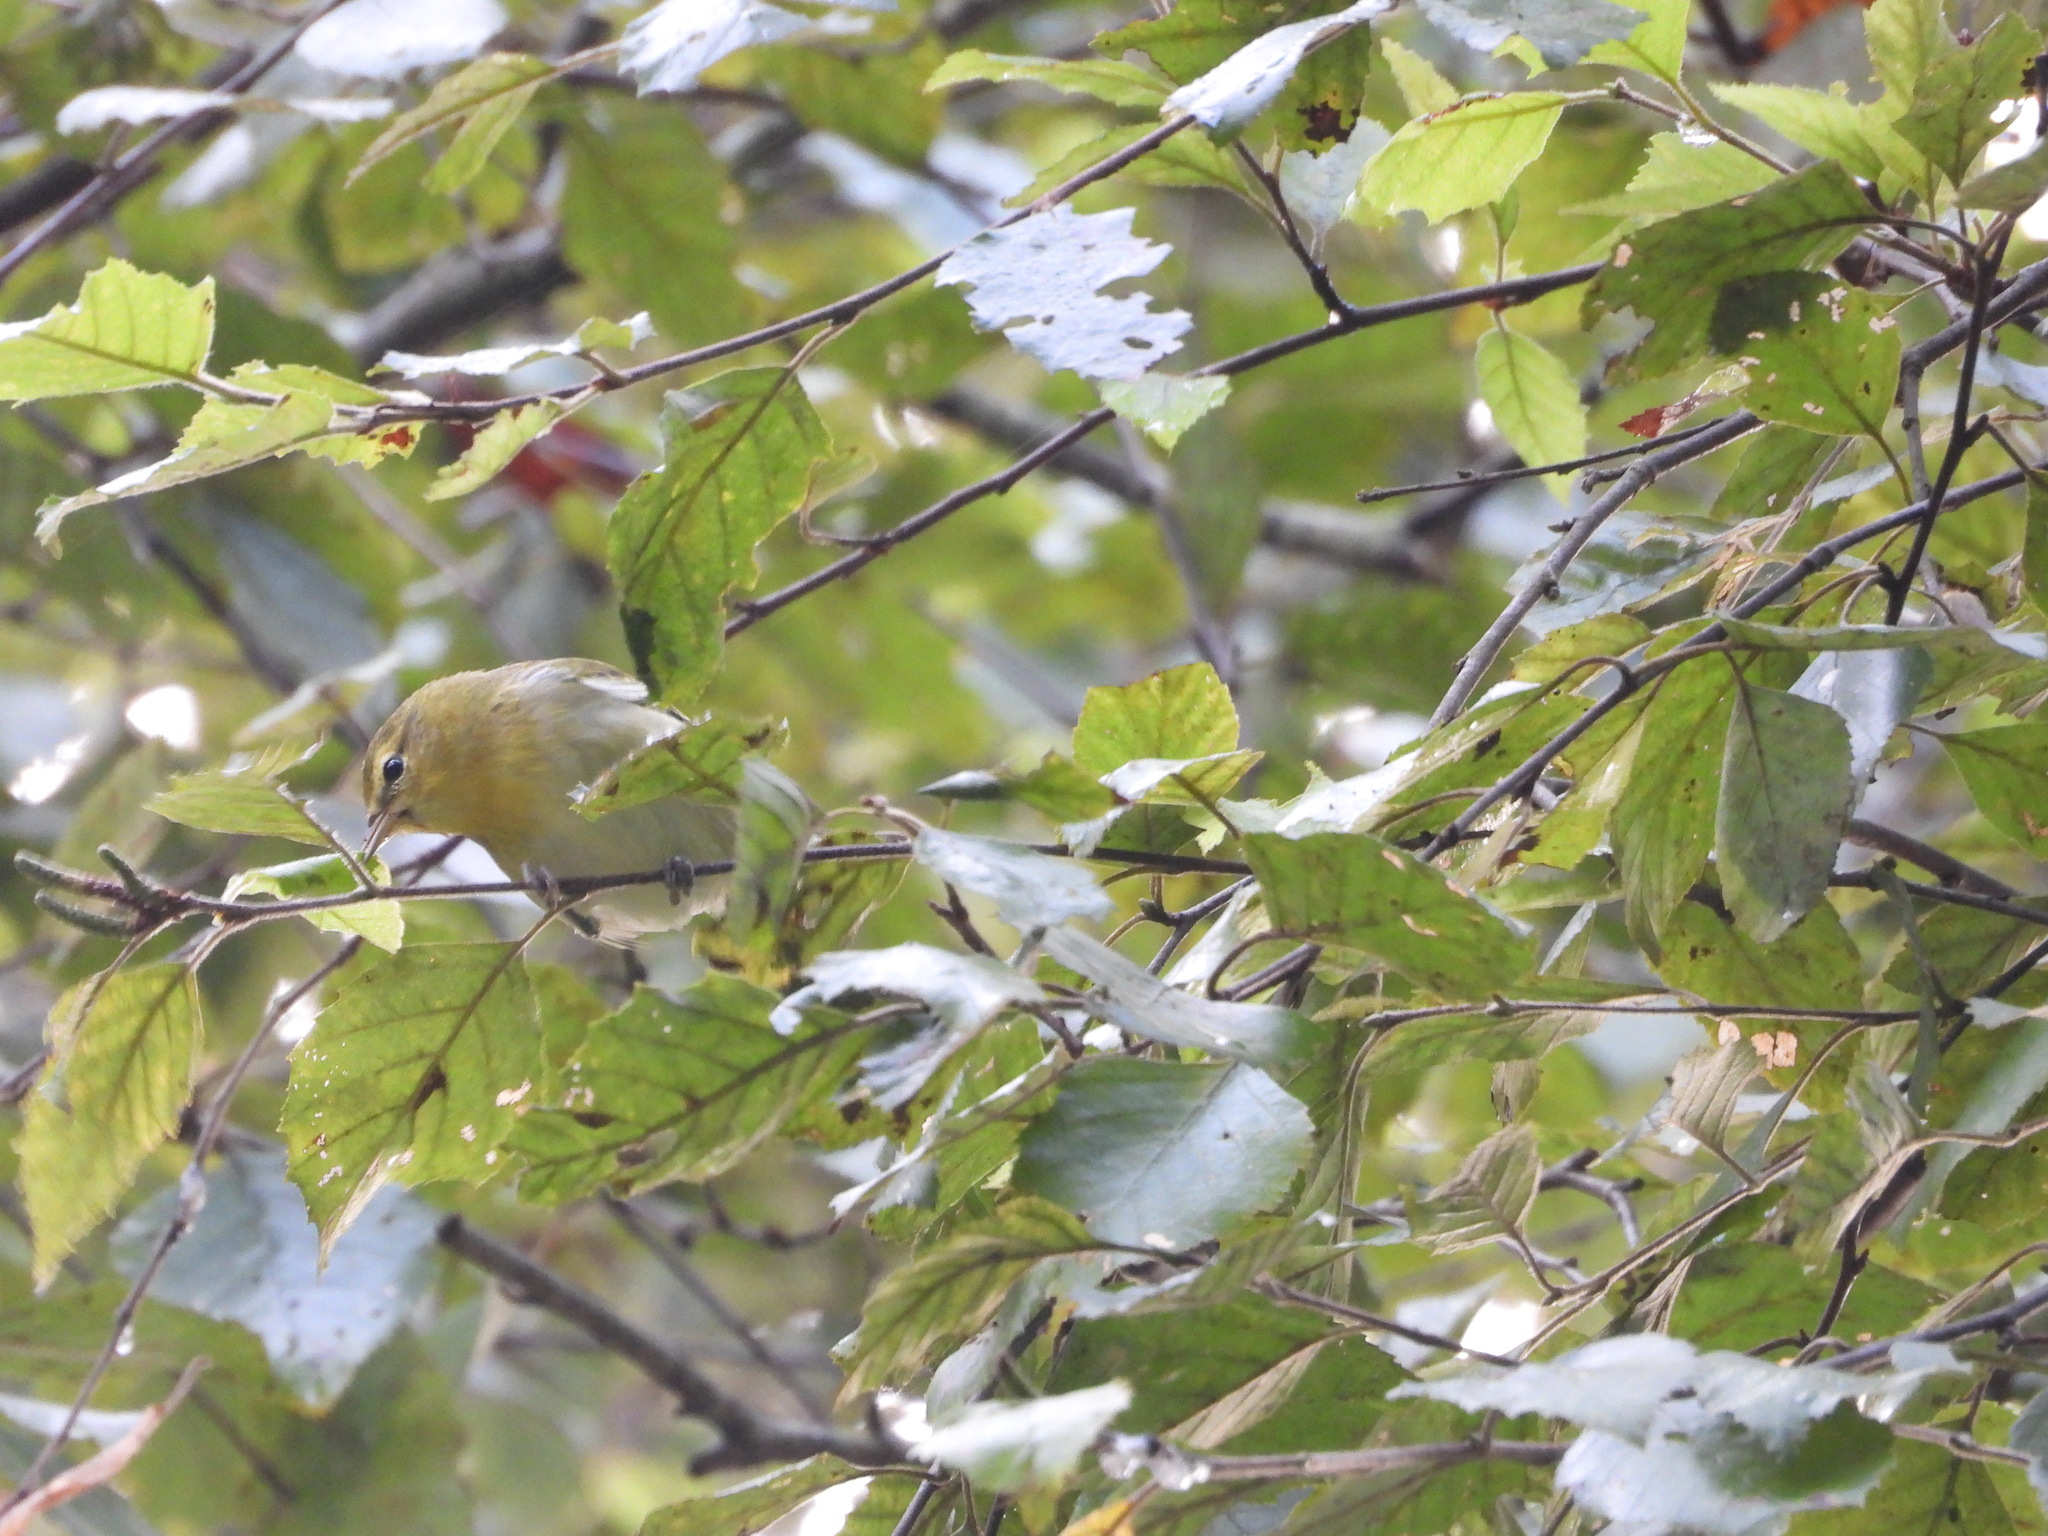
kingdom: Animalia
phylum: Chordata
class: Aves
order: Passeriformes
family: Parulidae
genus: Leiothlypis
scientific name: Leiothlypis peregrina
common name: Tennessee warbler
